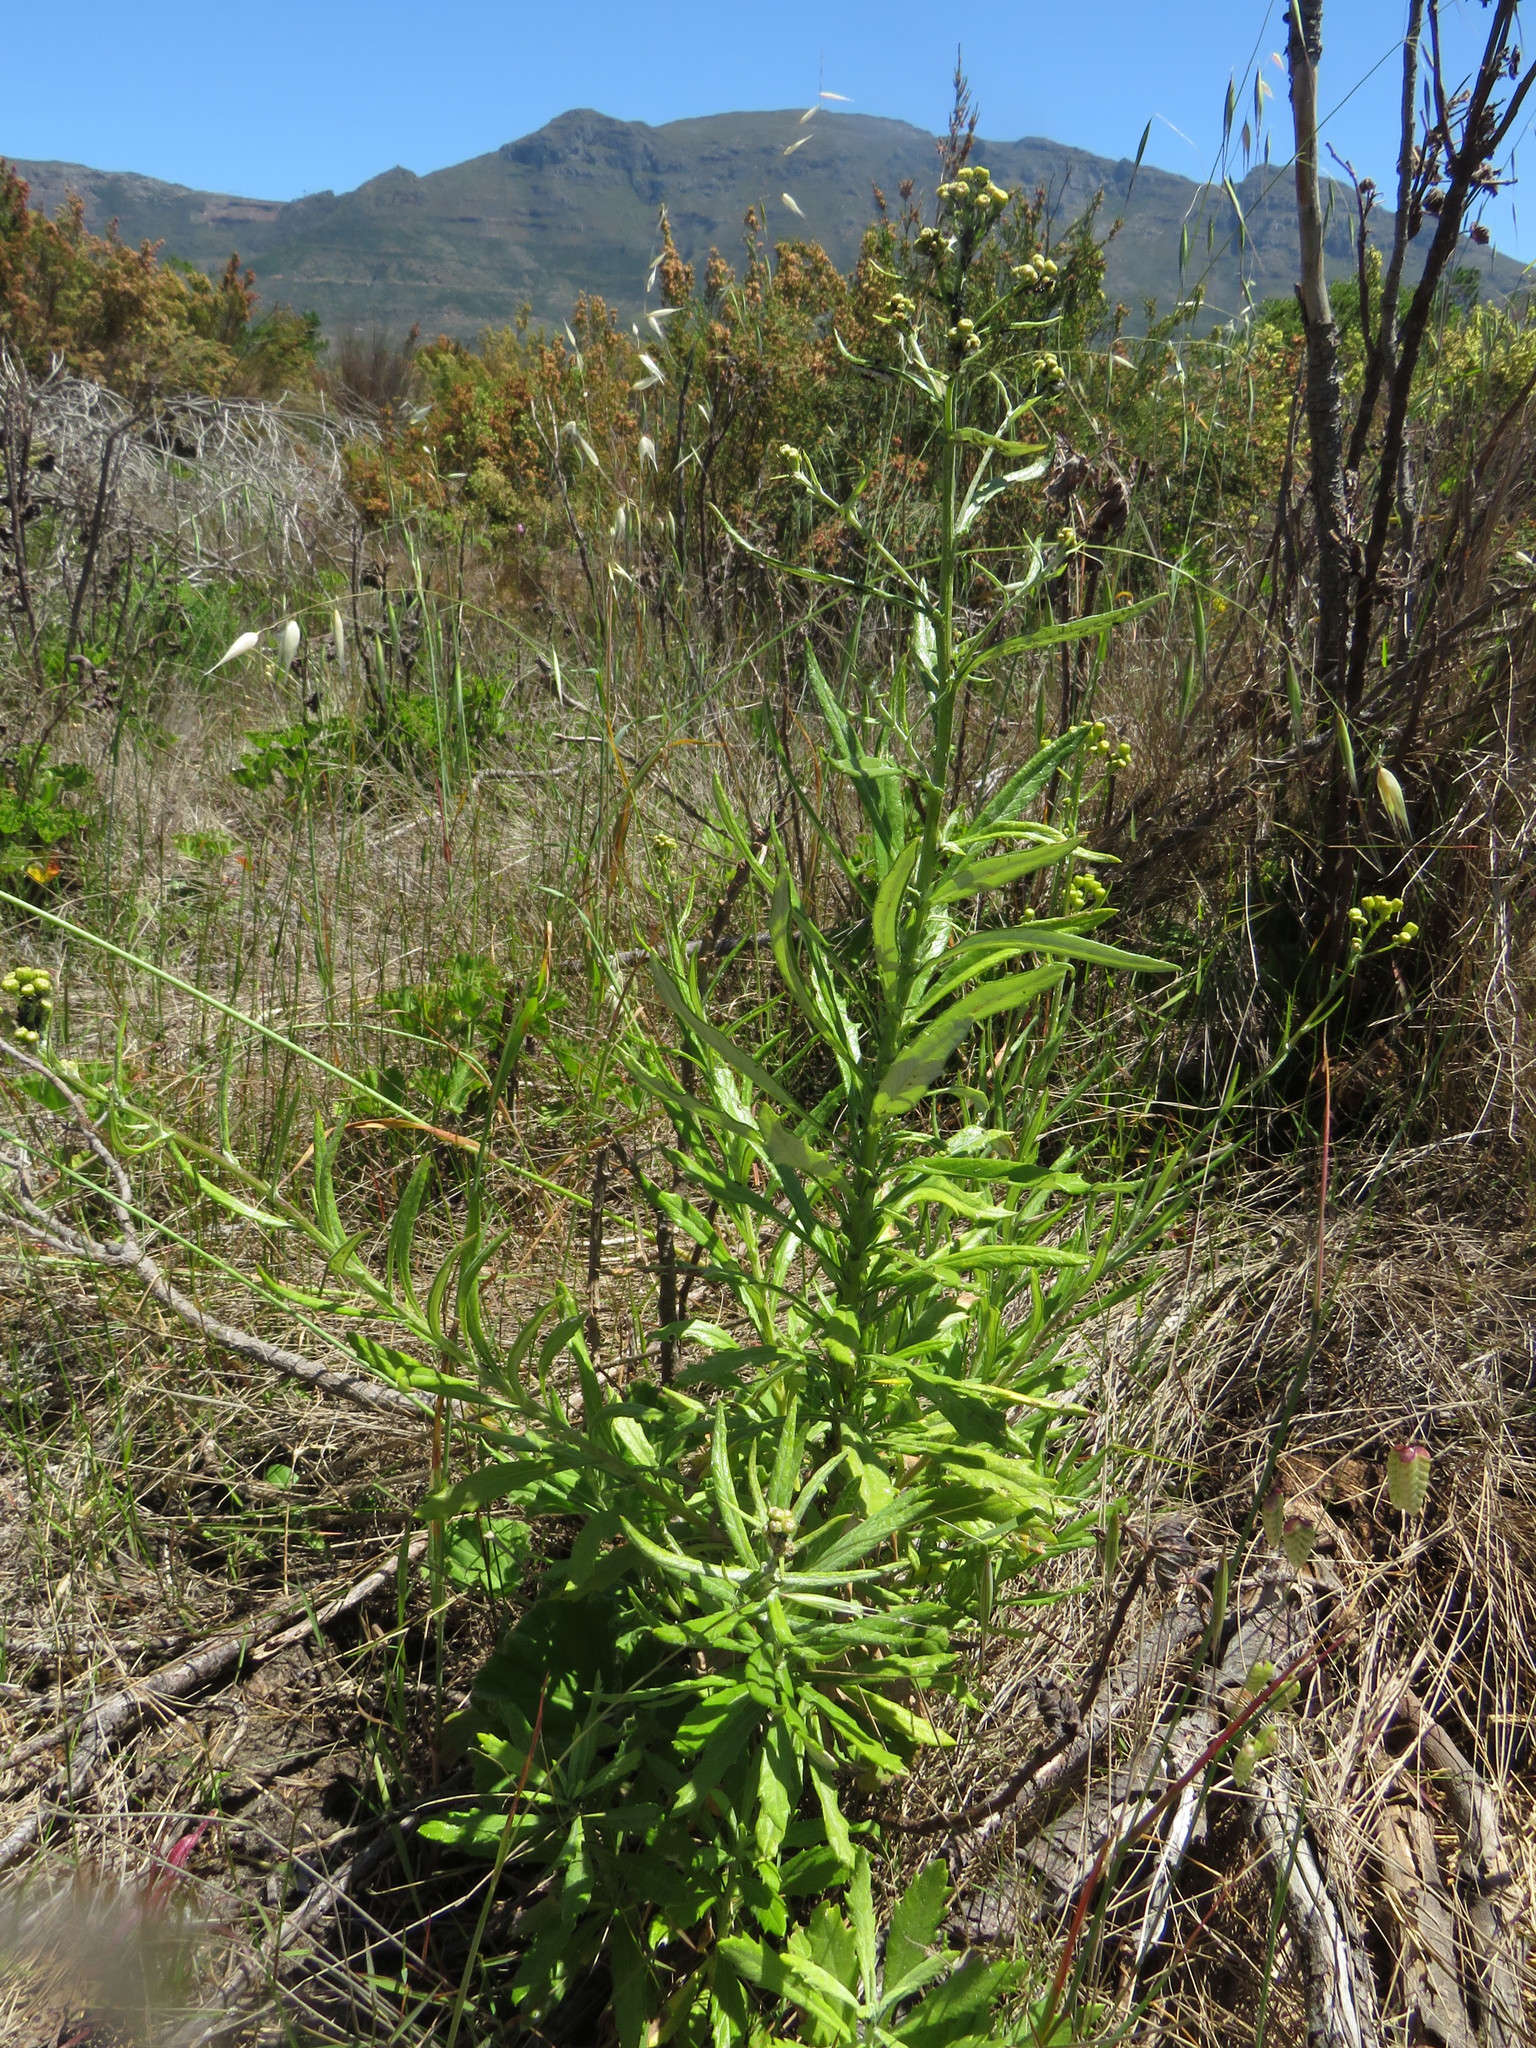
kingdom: Plantae
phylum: Tracheophyta
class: Magnoliopsida
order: Asterales
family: Asteraceae
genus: Senecio
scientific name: Senecio pterophorus
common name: Shoddy ragwort
